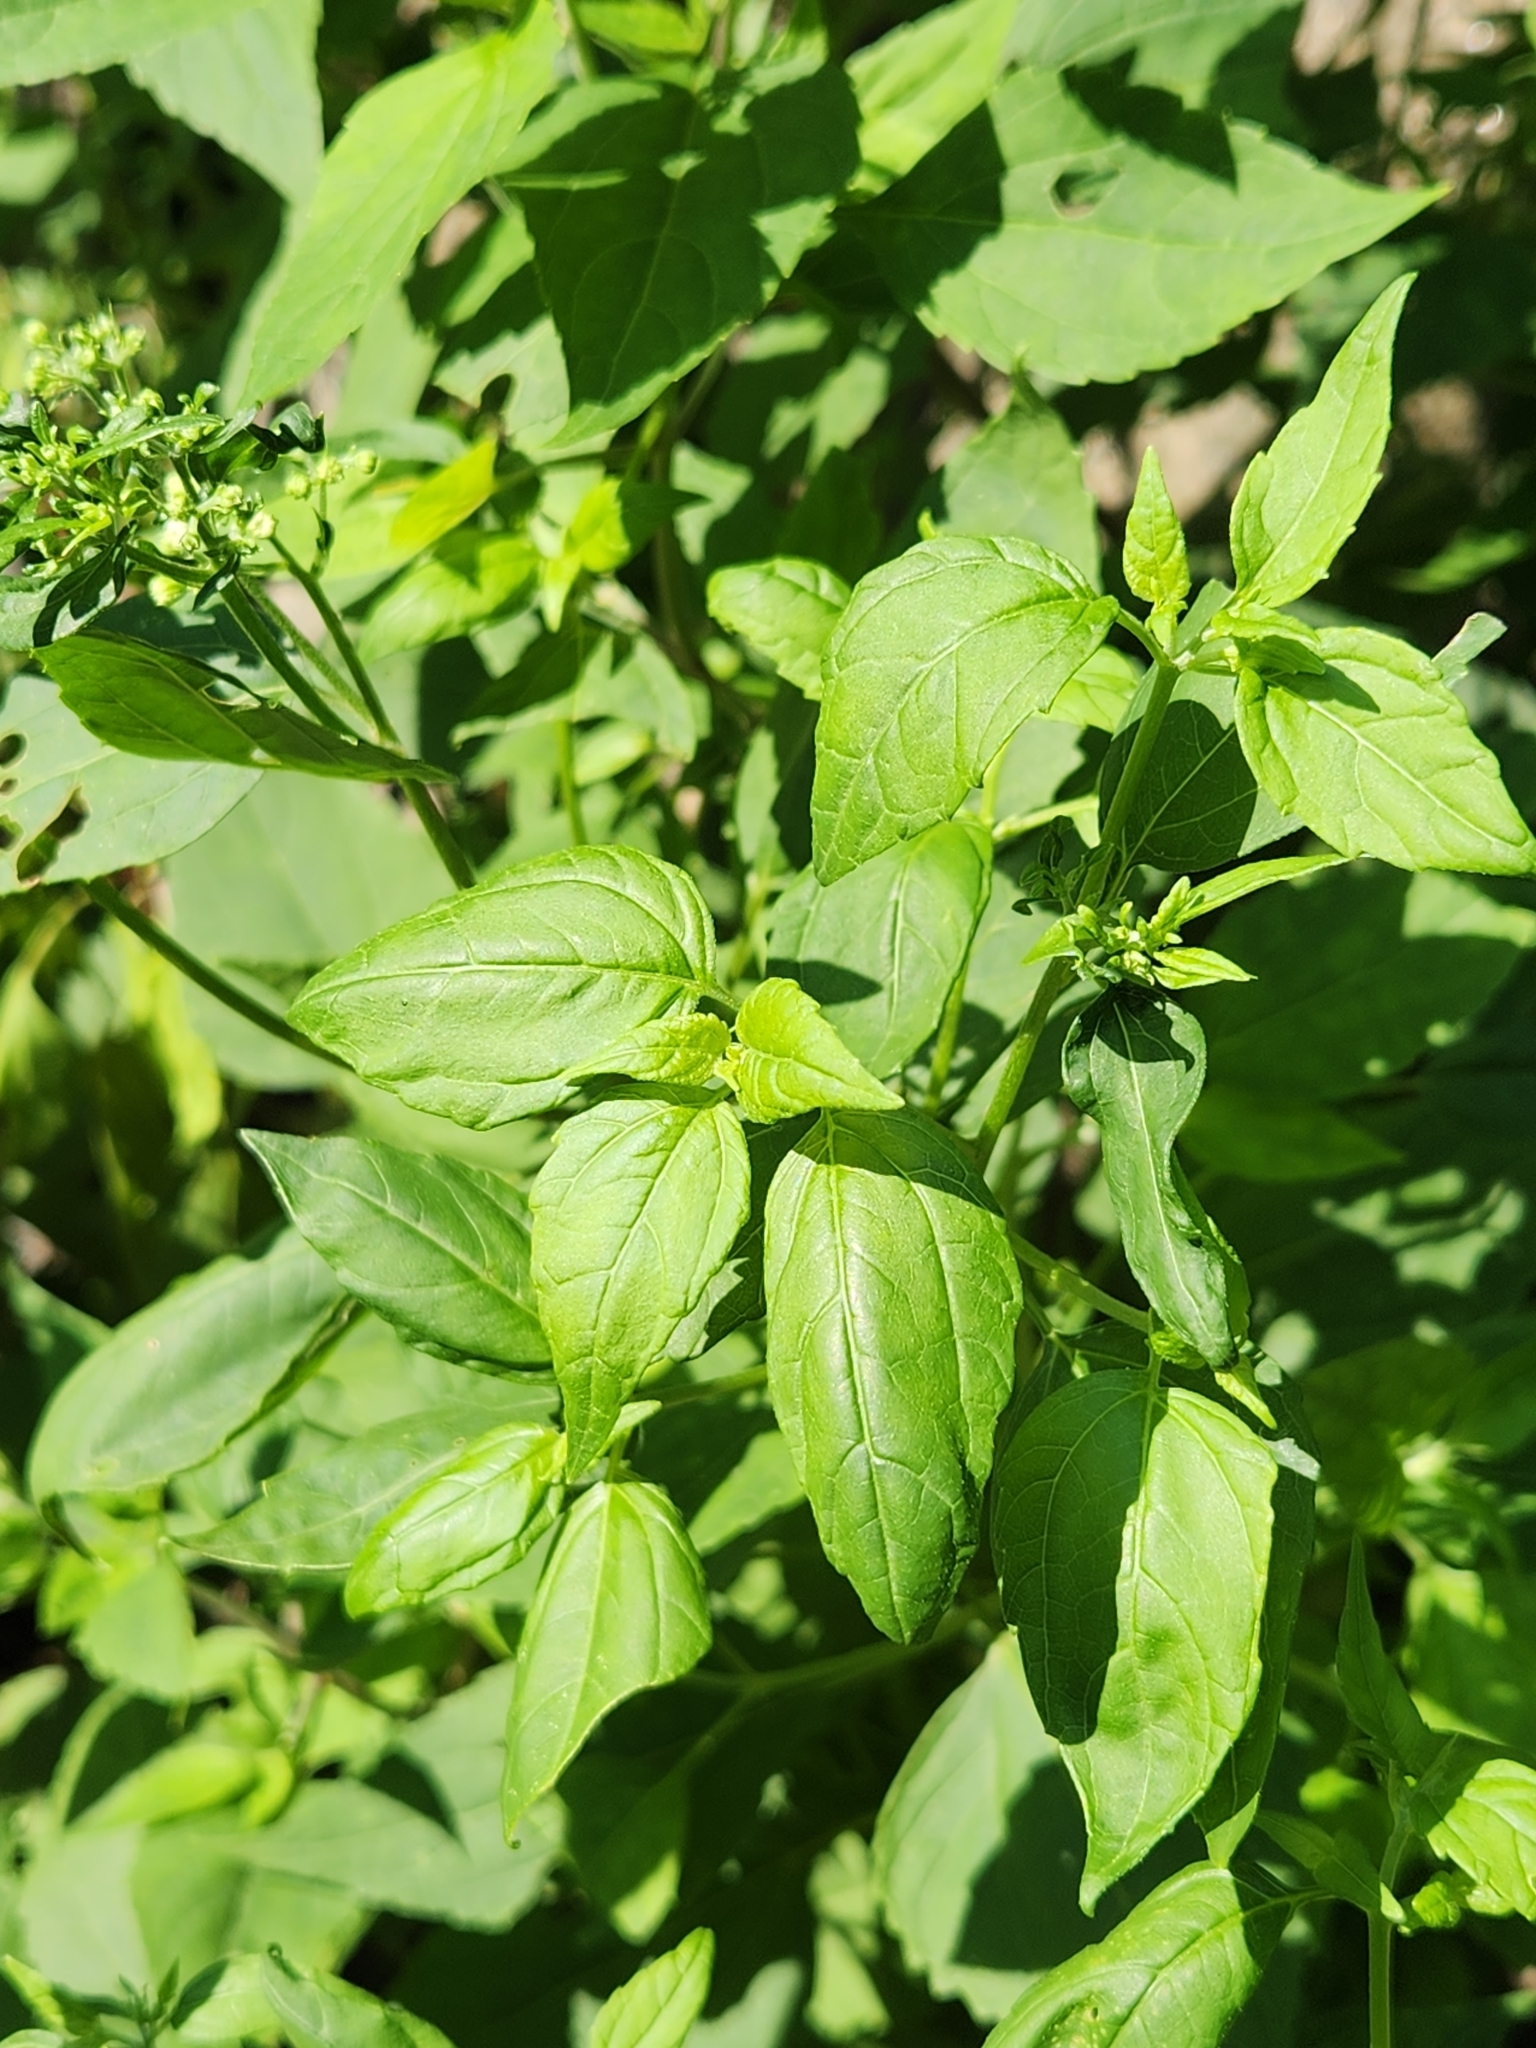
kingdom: Plantae
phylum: Tracheophyta
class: Magnoliopsida
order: Asterales
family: Asteraceae
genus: Ageratina
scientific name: Ageratina altissima
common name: White snakeroot
